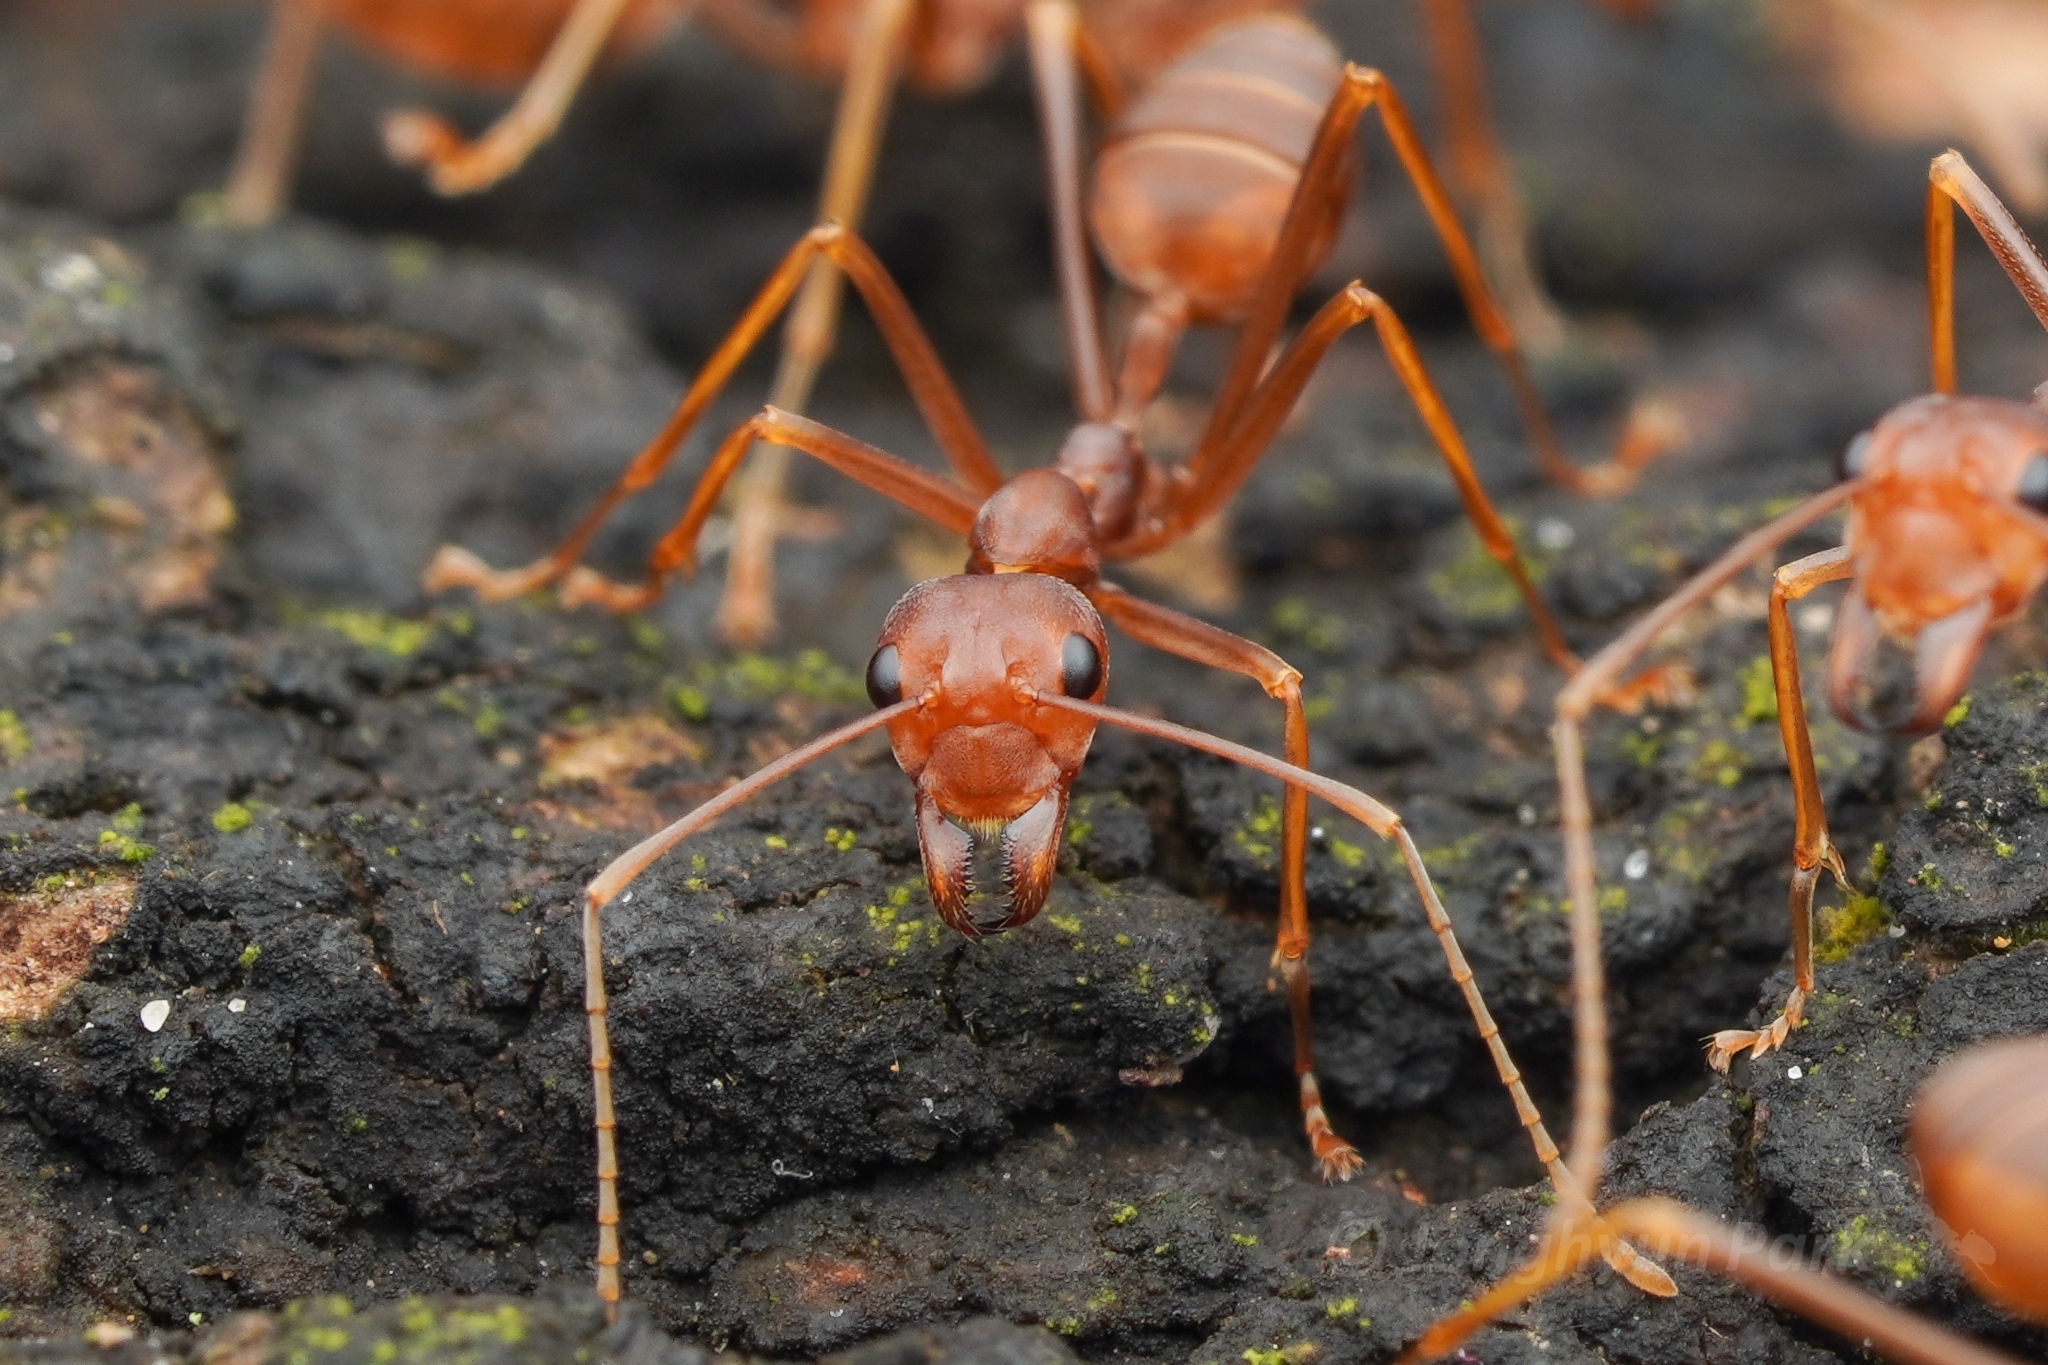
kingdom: Animalia
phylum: Arthropoda
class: Insecta
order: Hymenoptera
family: Formicidae
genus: Oecophylla
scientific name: Oecophylla smaragdina
